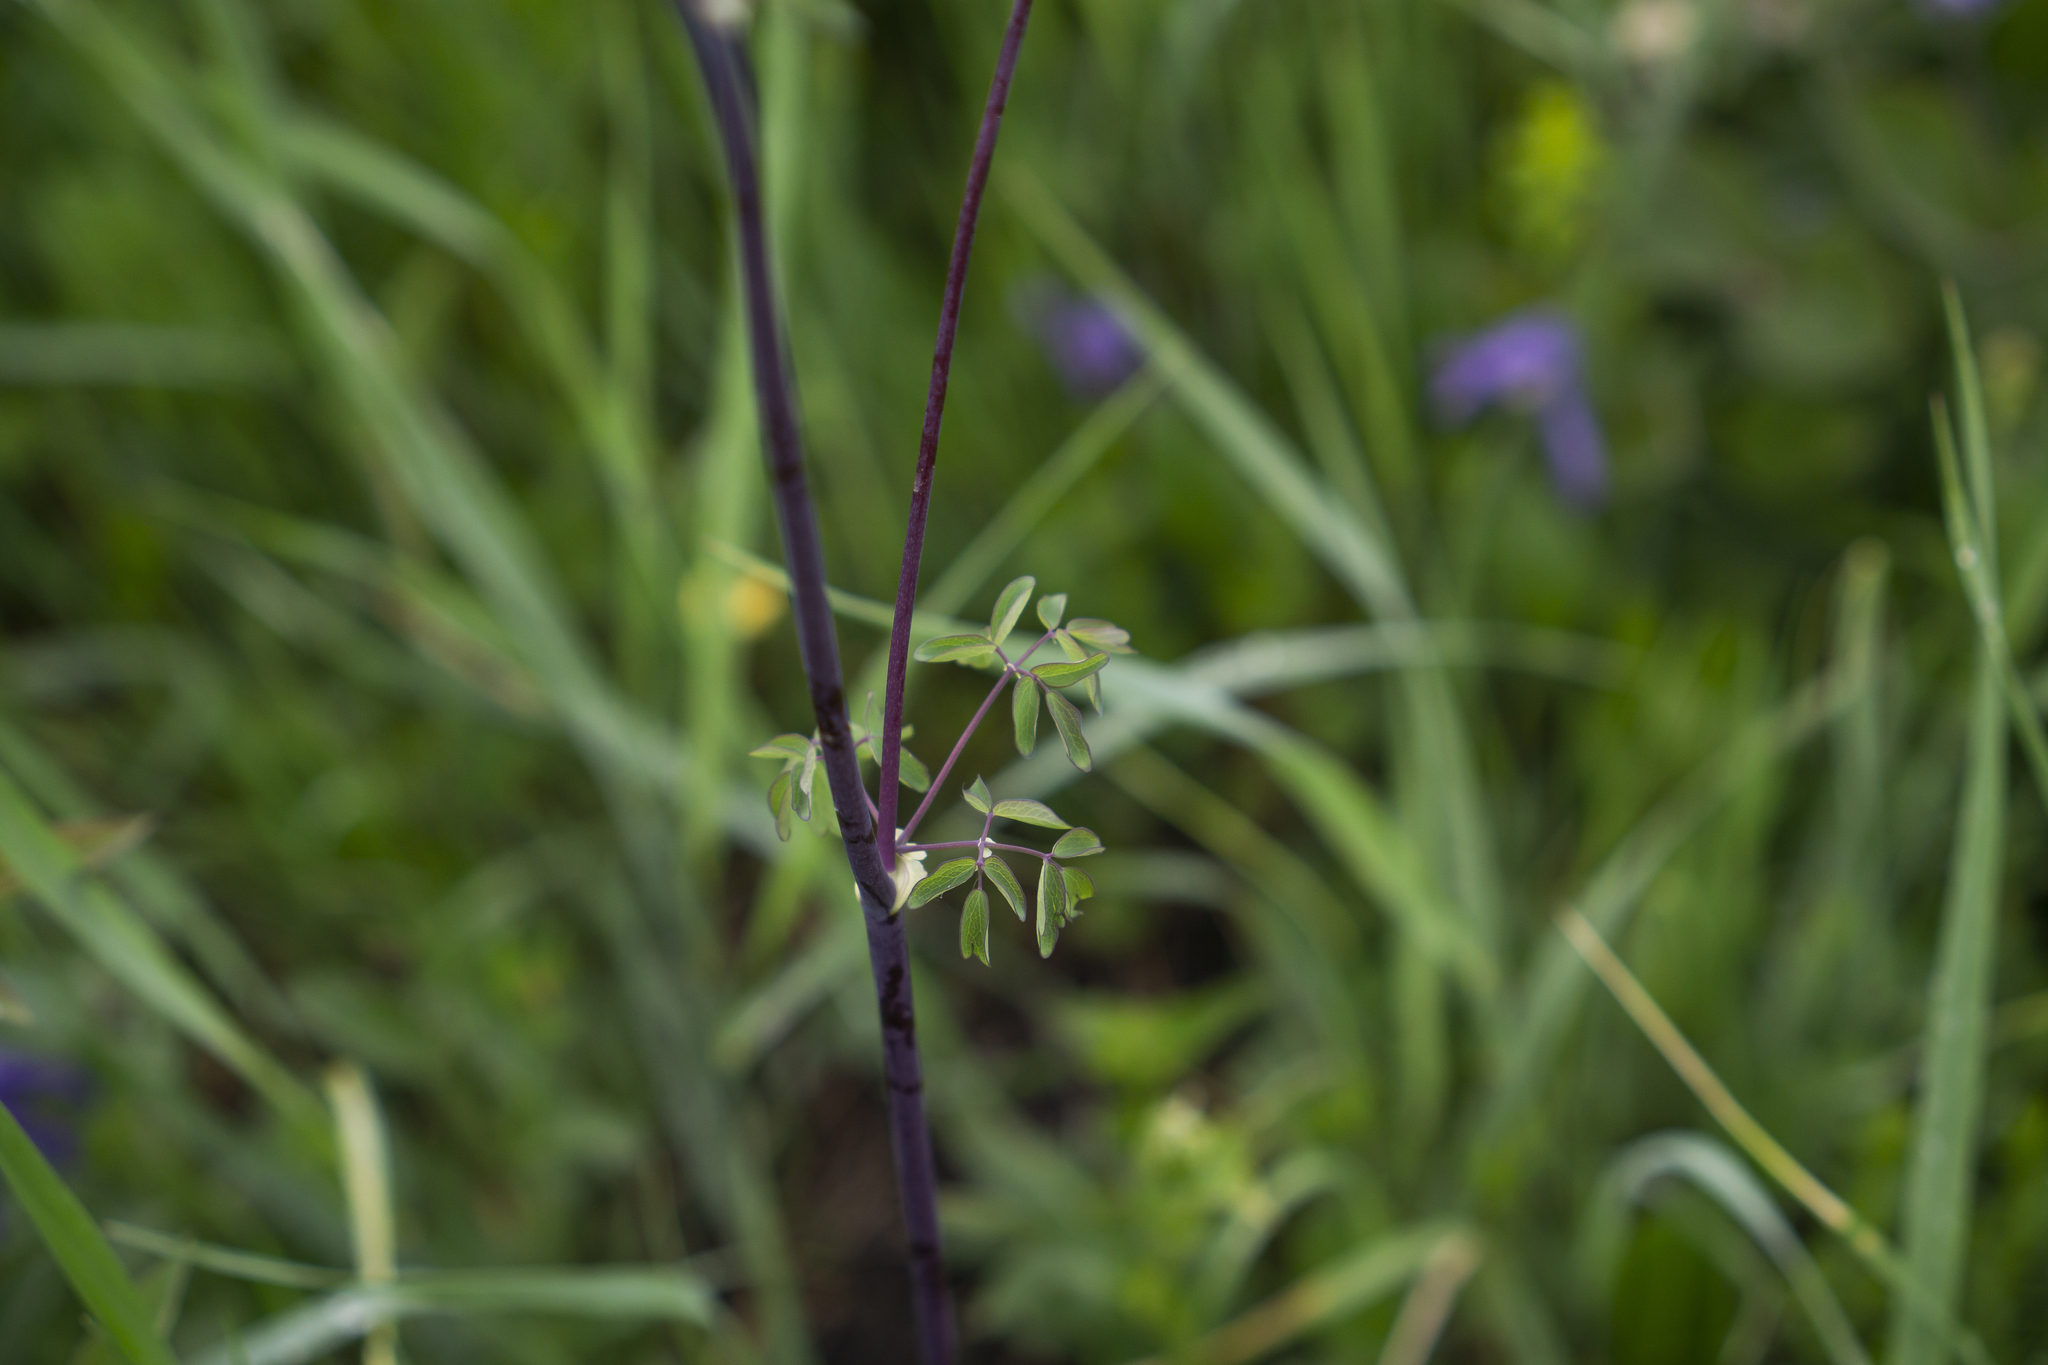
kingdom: Plantae
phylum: Tracheophyta
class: Magnoliopsida
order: Ranunculales
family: Ranunculaceae
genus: Thalictrum
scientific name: Thalictrum aquilegiifolium
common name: French meadow-rue
